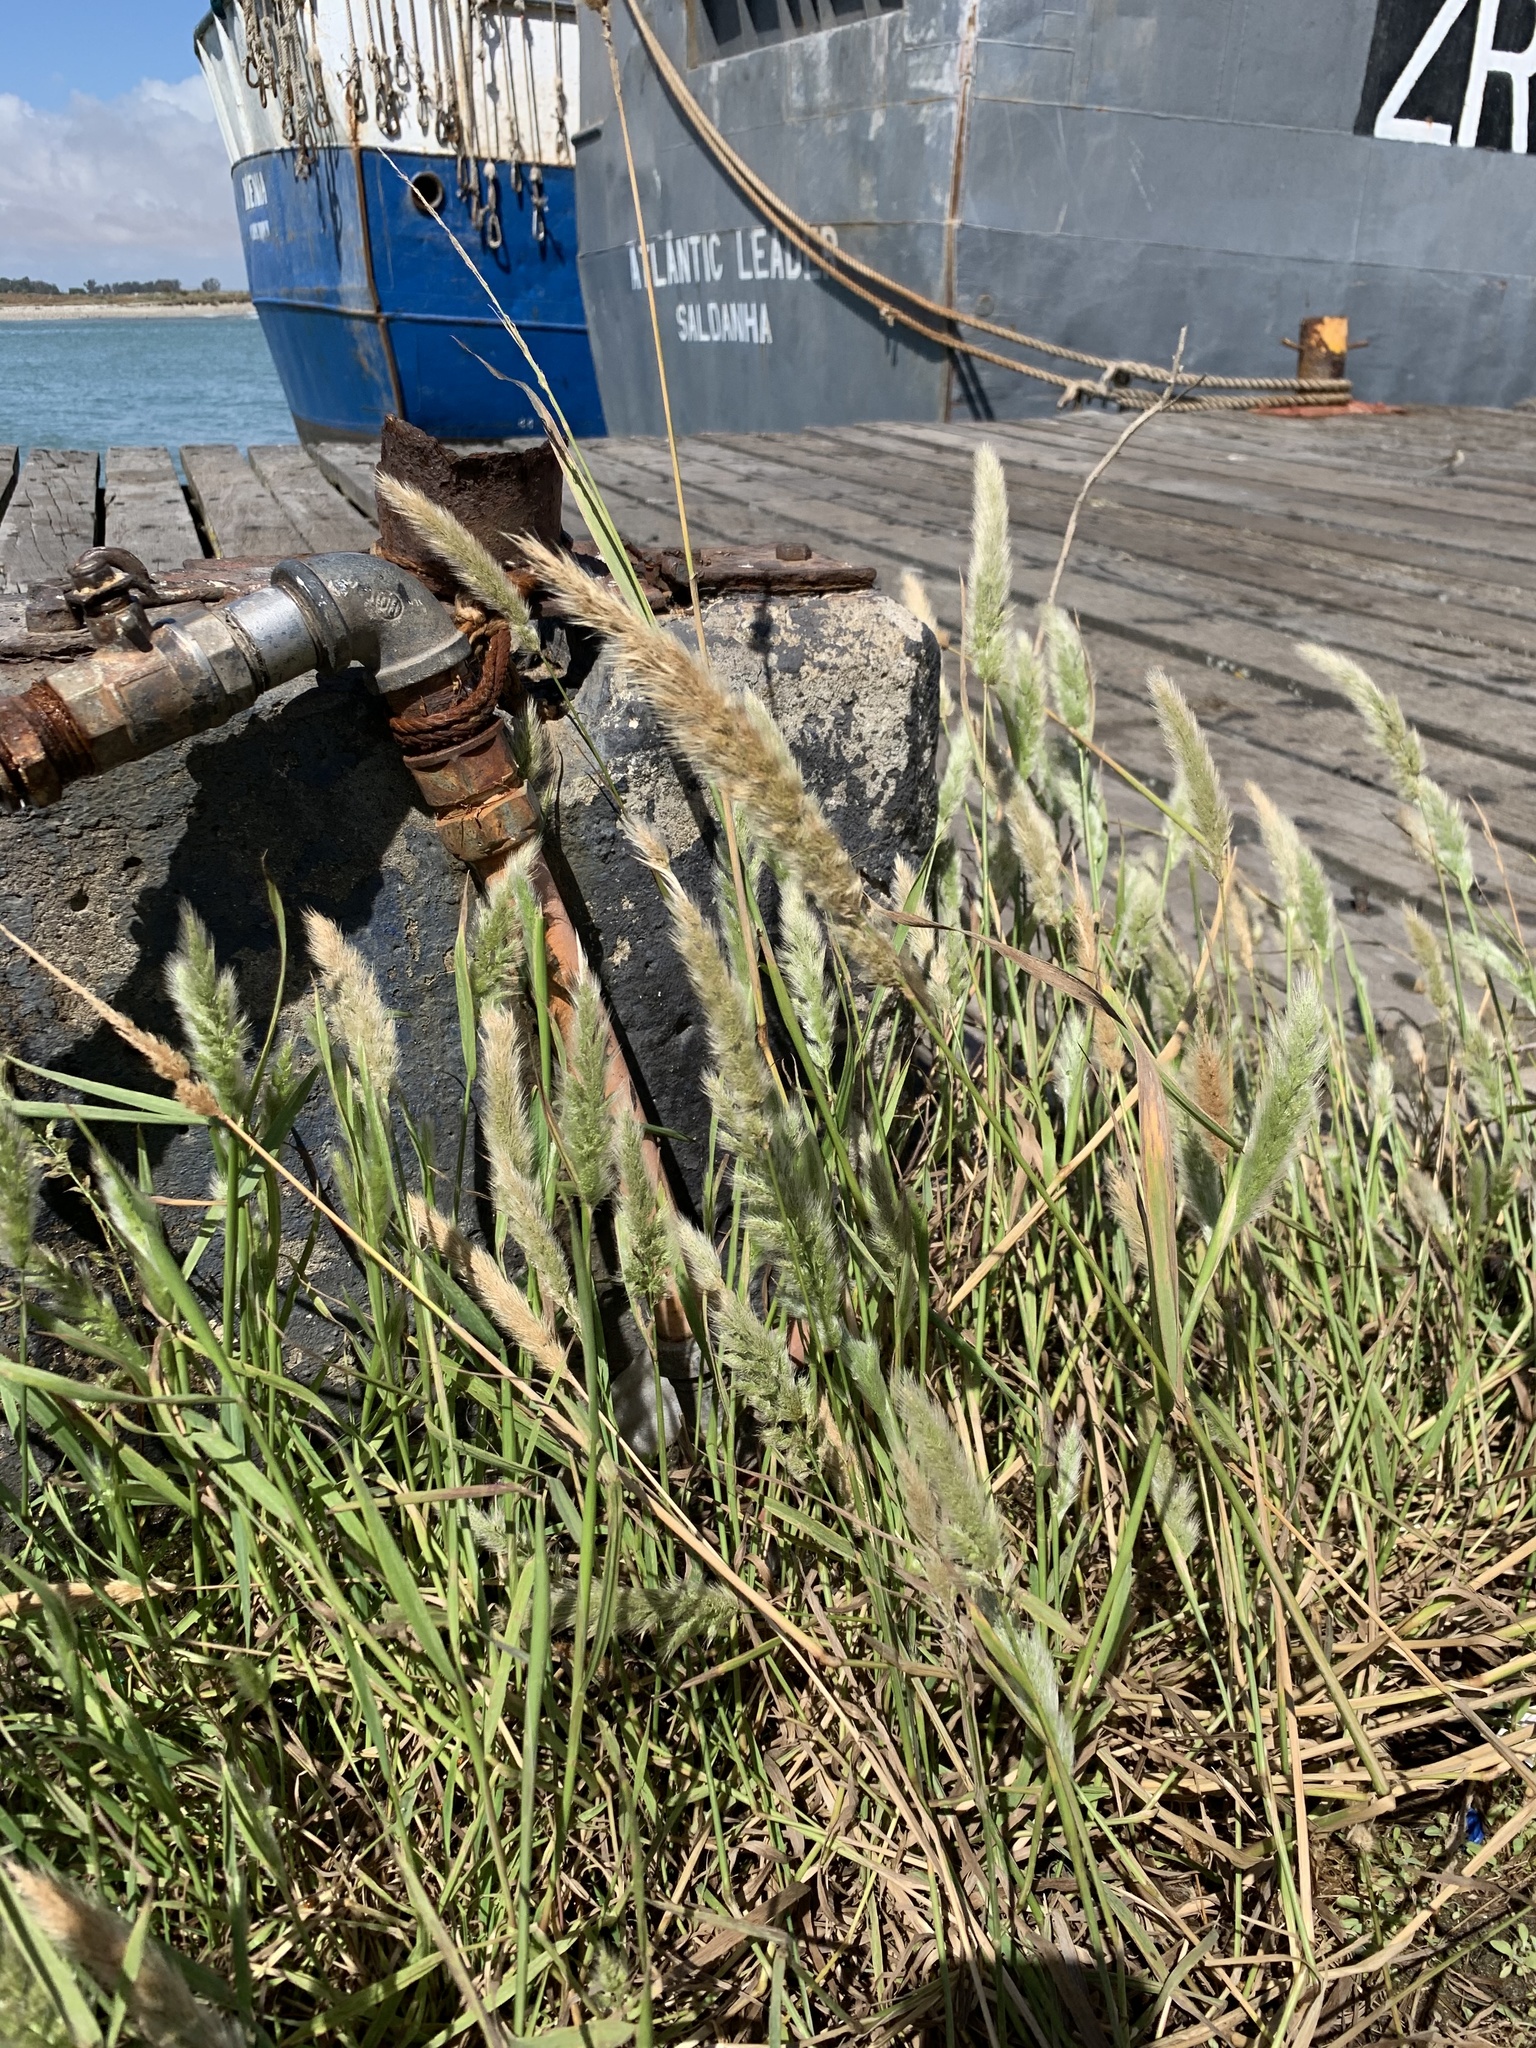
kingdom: Plantae
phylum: Tracheophyta
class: Liliopsida
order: Poales
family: Poaceae
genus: Polypogon
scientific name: Polypogon monspeliensis
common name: Annual rabbitsfoot grass
